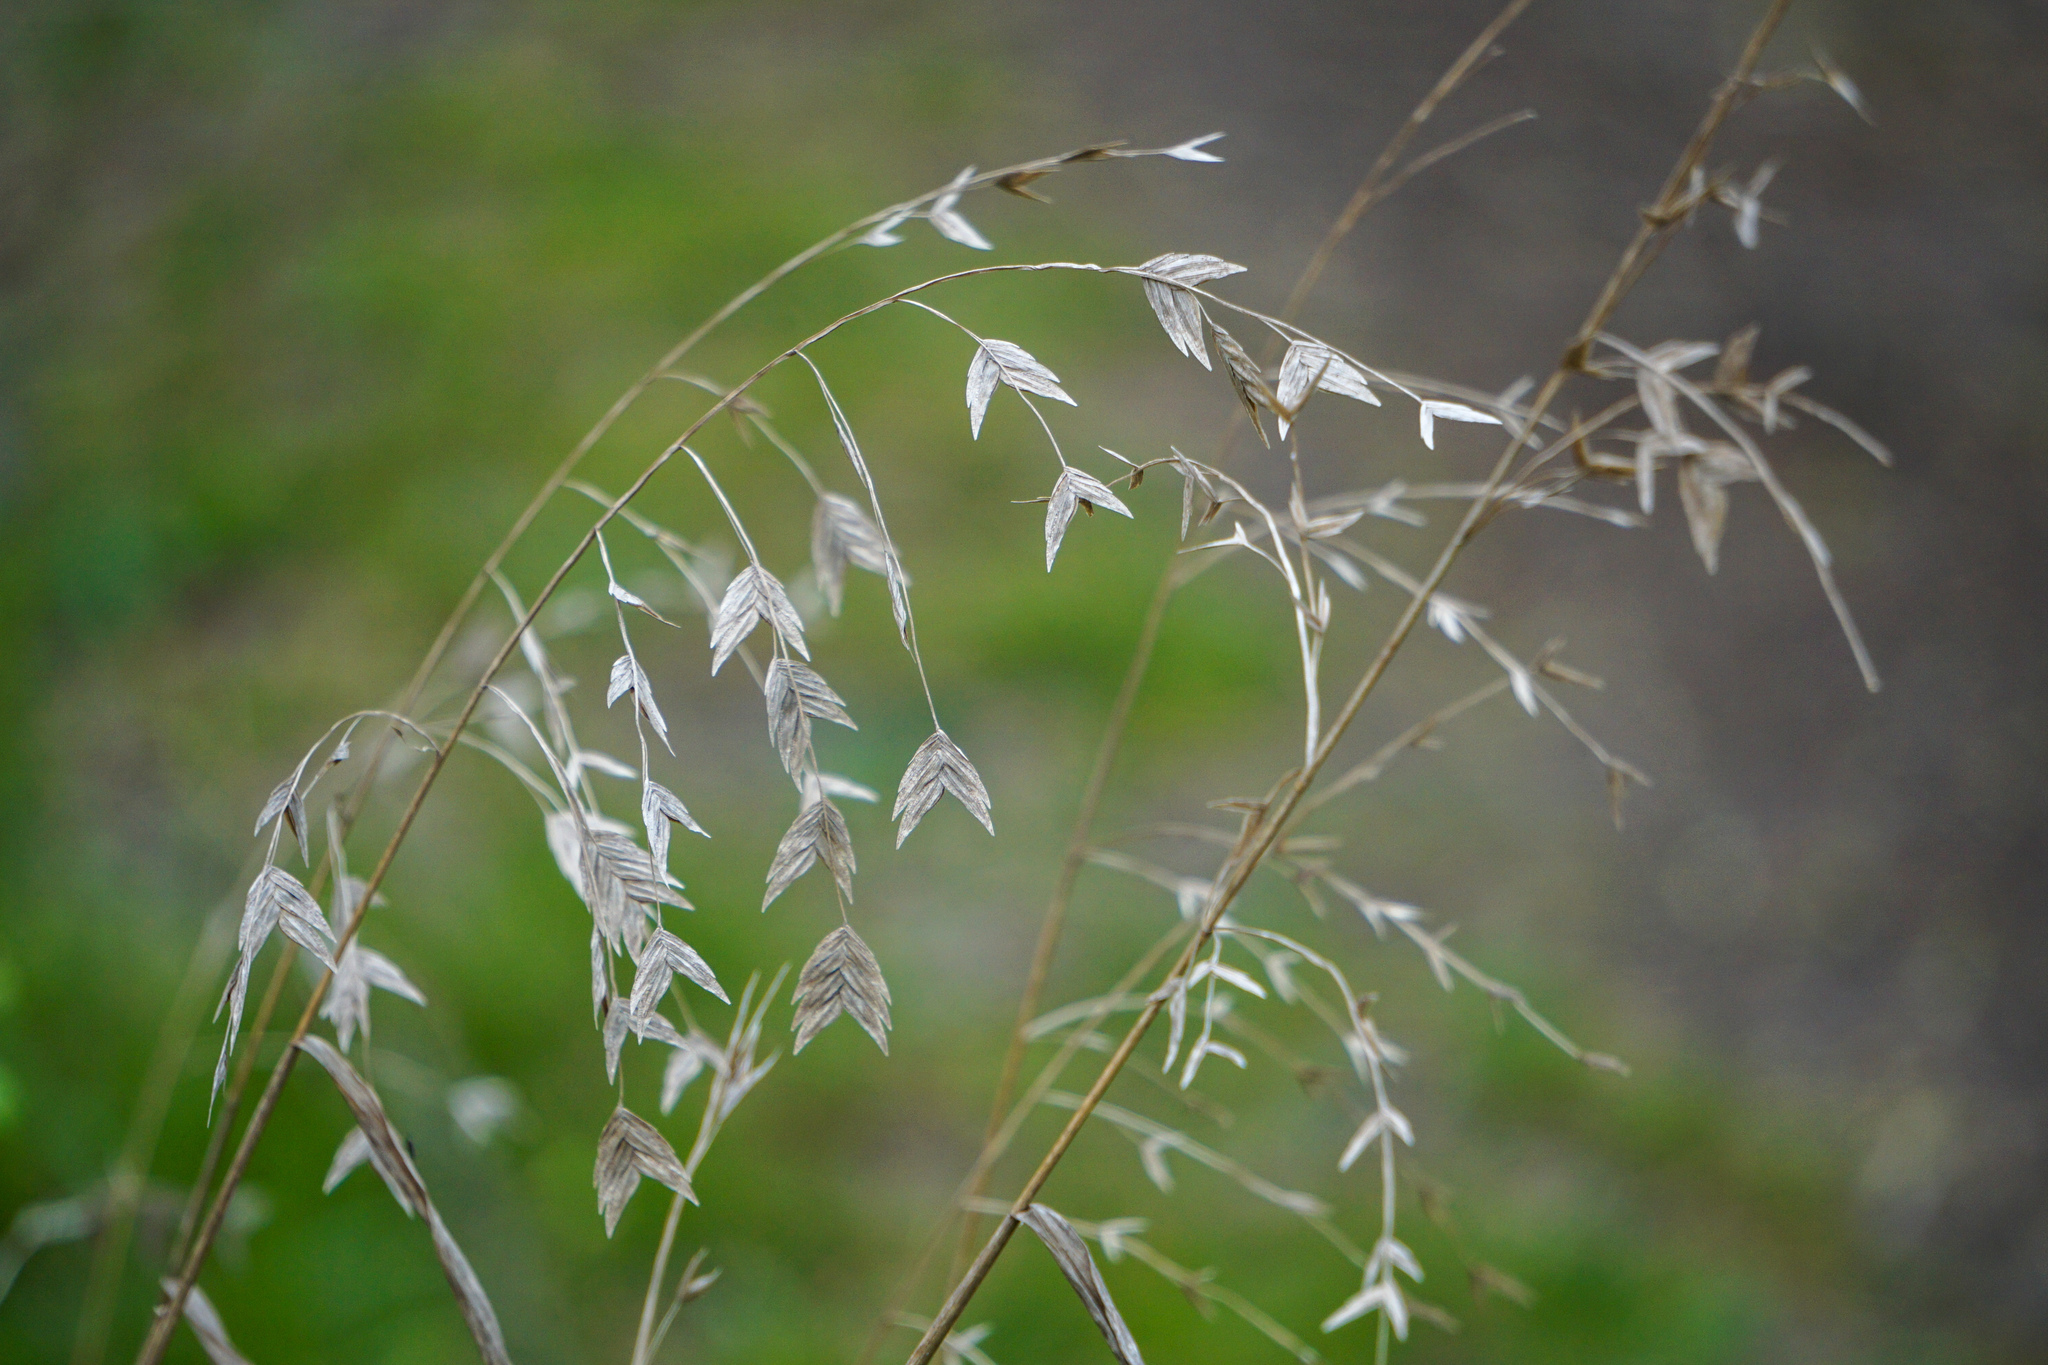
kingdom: Plantae
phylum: Tracheophyta
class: Liliopsida
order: Poales
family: Poaceae
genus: Chasmanthium
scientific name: Chasmanthium latifolium
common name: Broad-leaved chasmanthium
